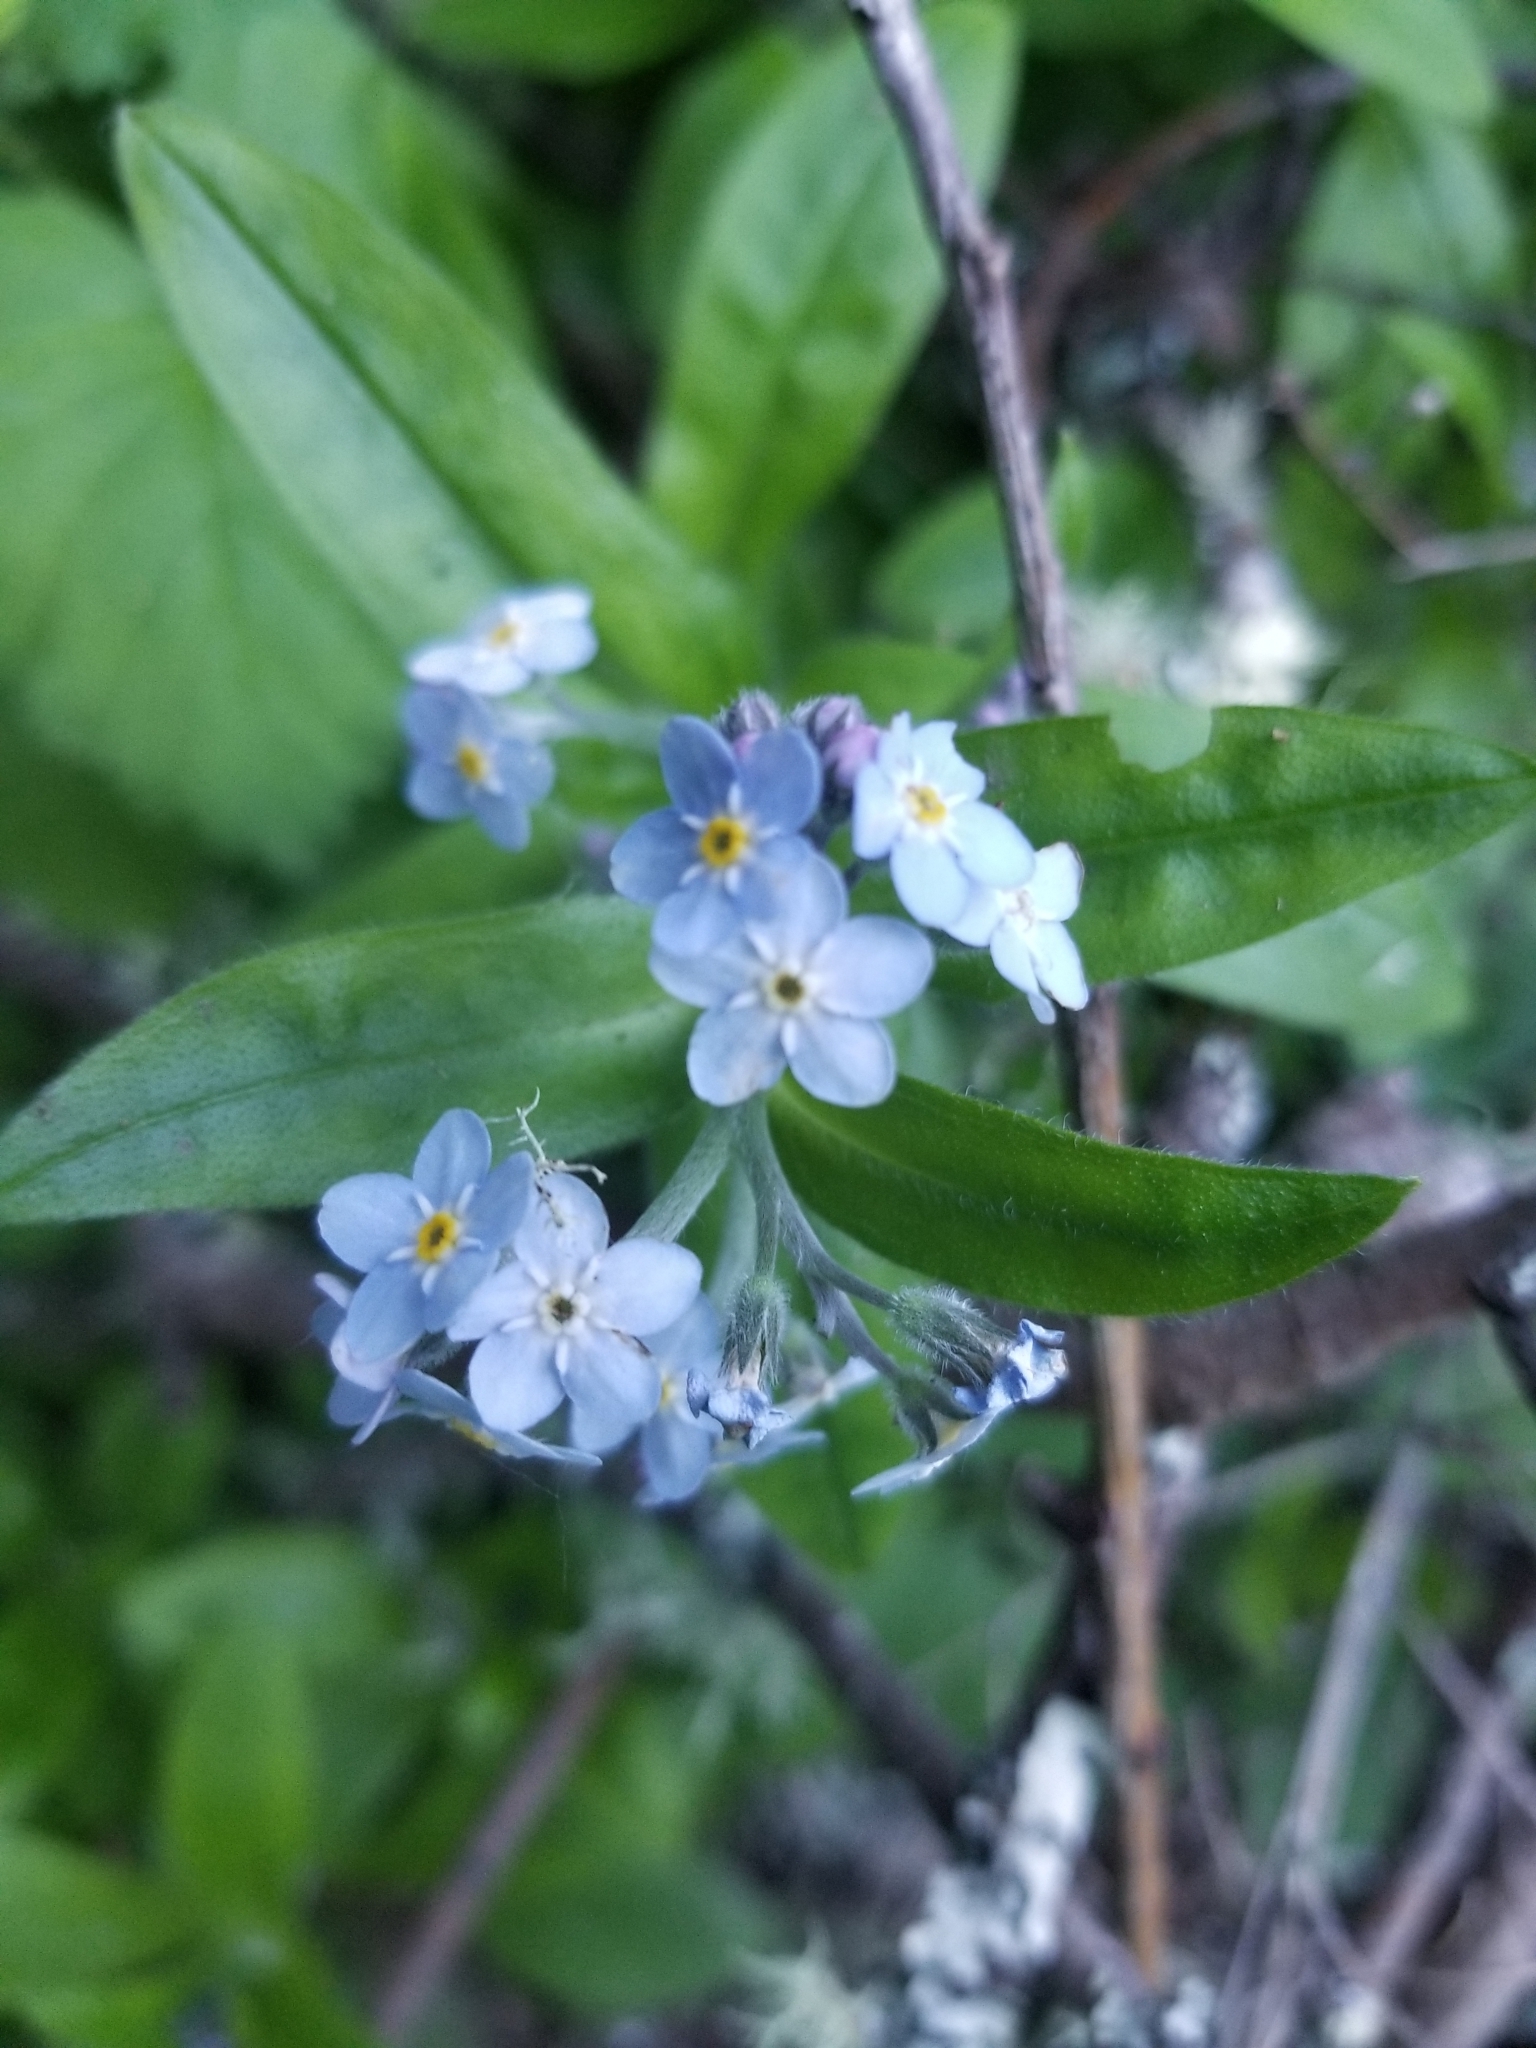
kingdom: Plantae
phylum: Tracheophyta
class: Magnoliopsida
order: Boraginales
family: Boraginaceae
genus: Myosotis
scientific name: Myosotis latifolia
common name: Broadleaf forget-me-not
